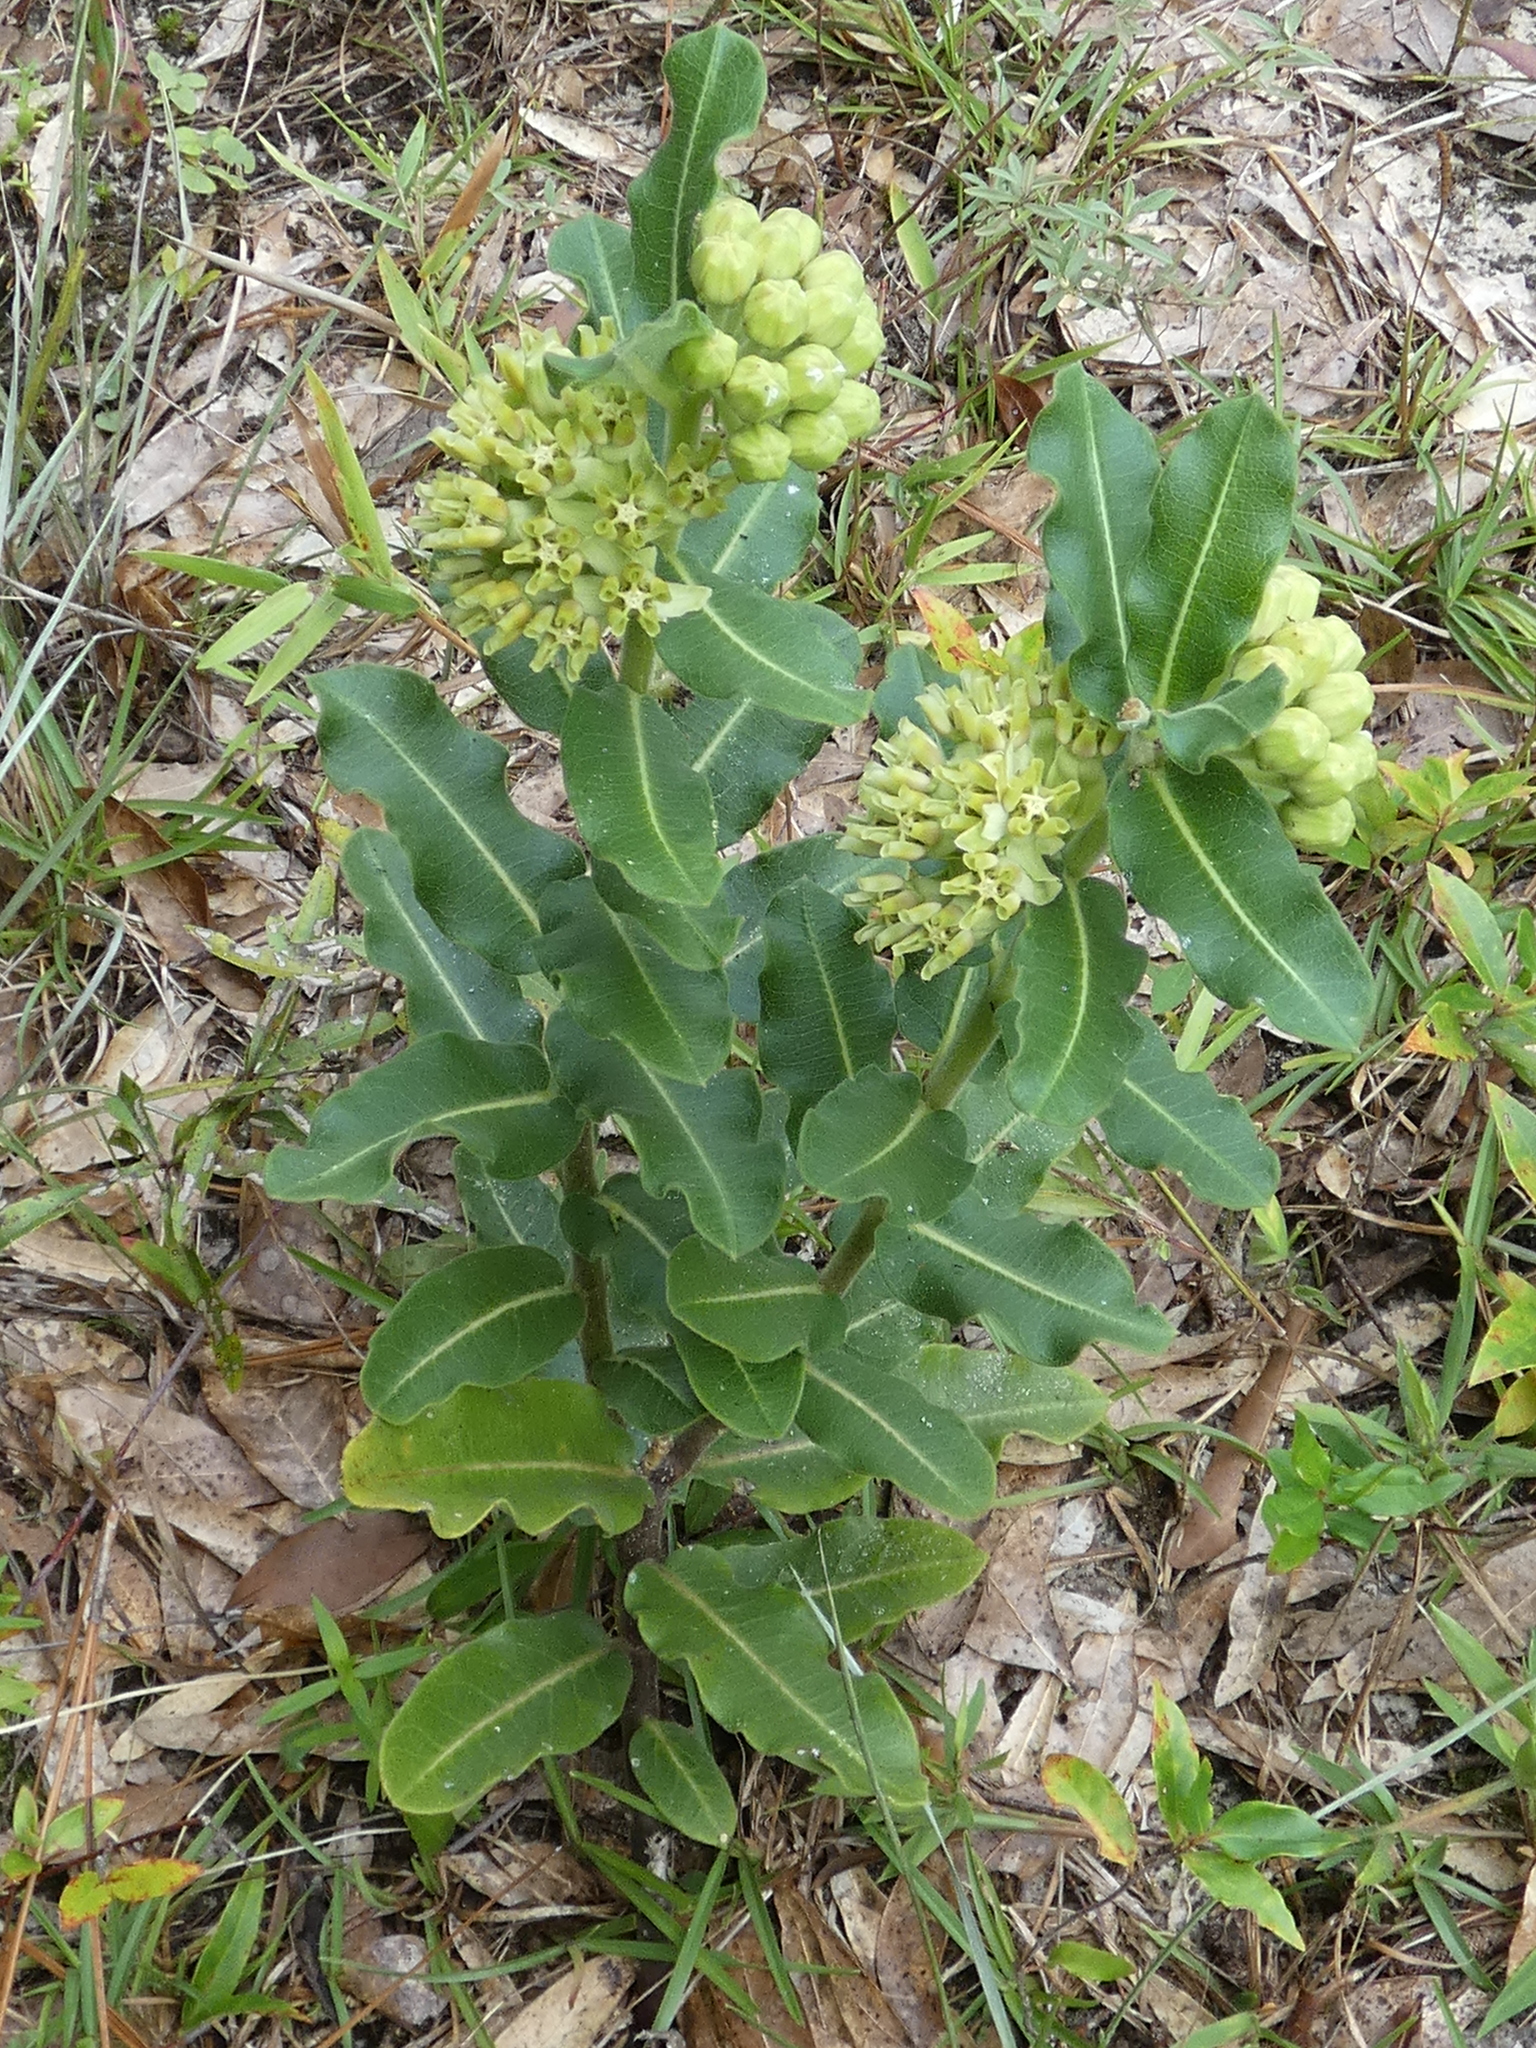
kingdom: Plantae
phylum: Tracheophyta
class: Magnoliopsida
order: Gentianales
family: Apocynaceae
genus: Asclepias
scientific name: Asclepias obovata
